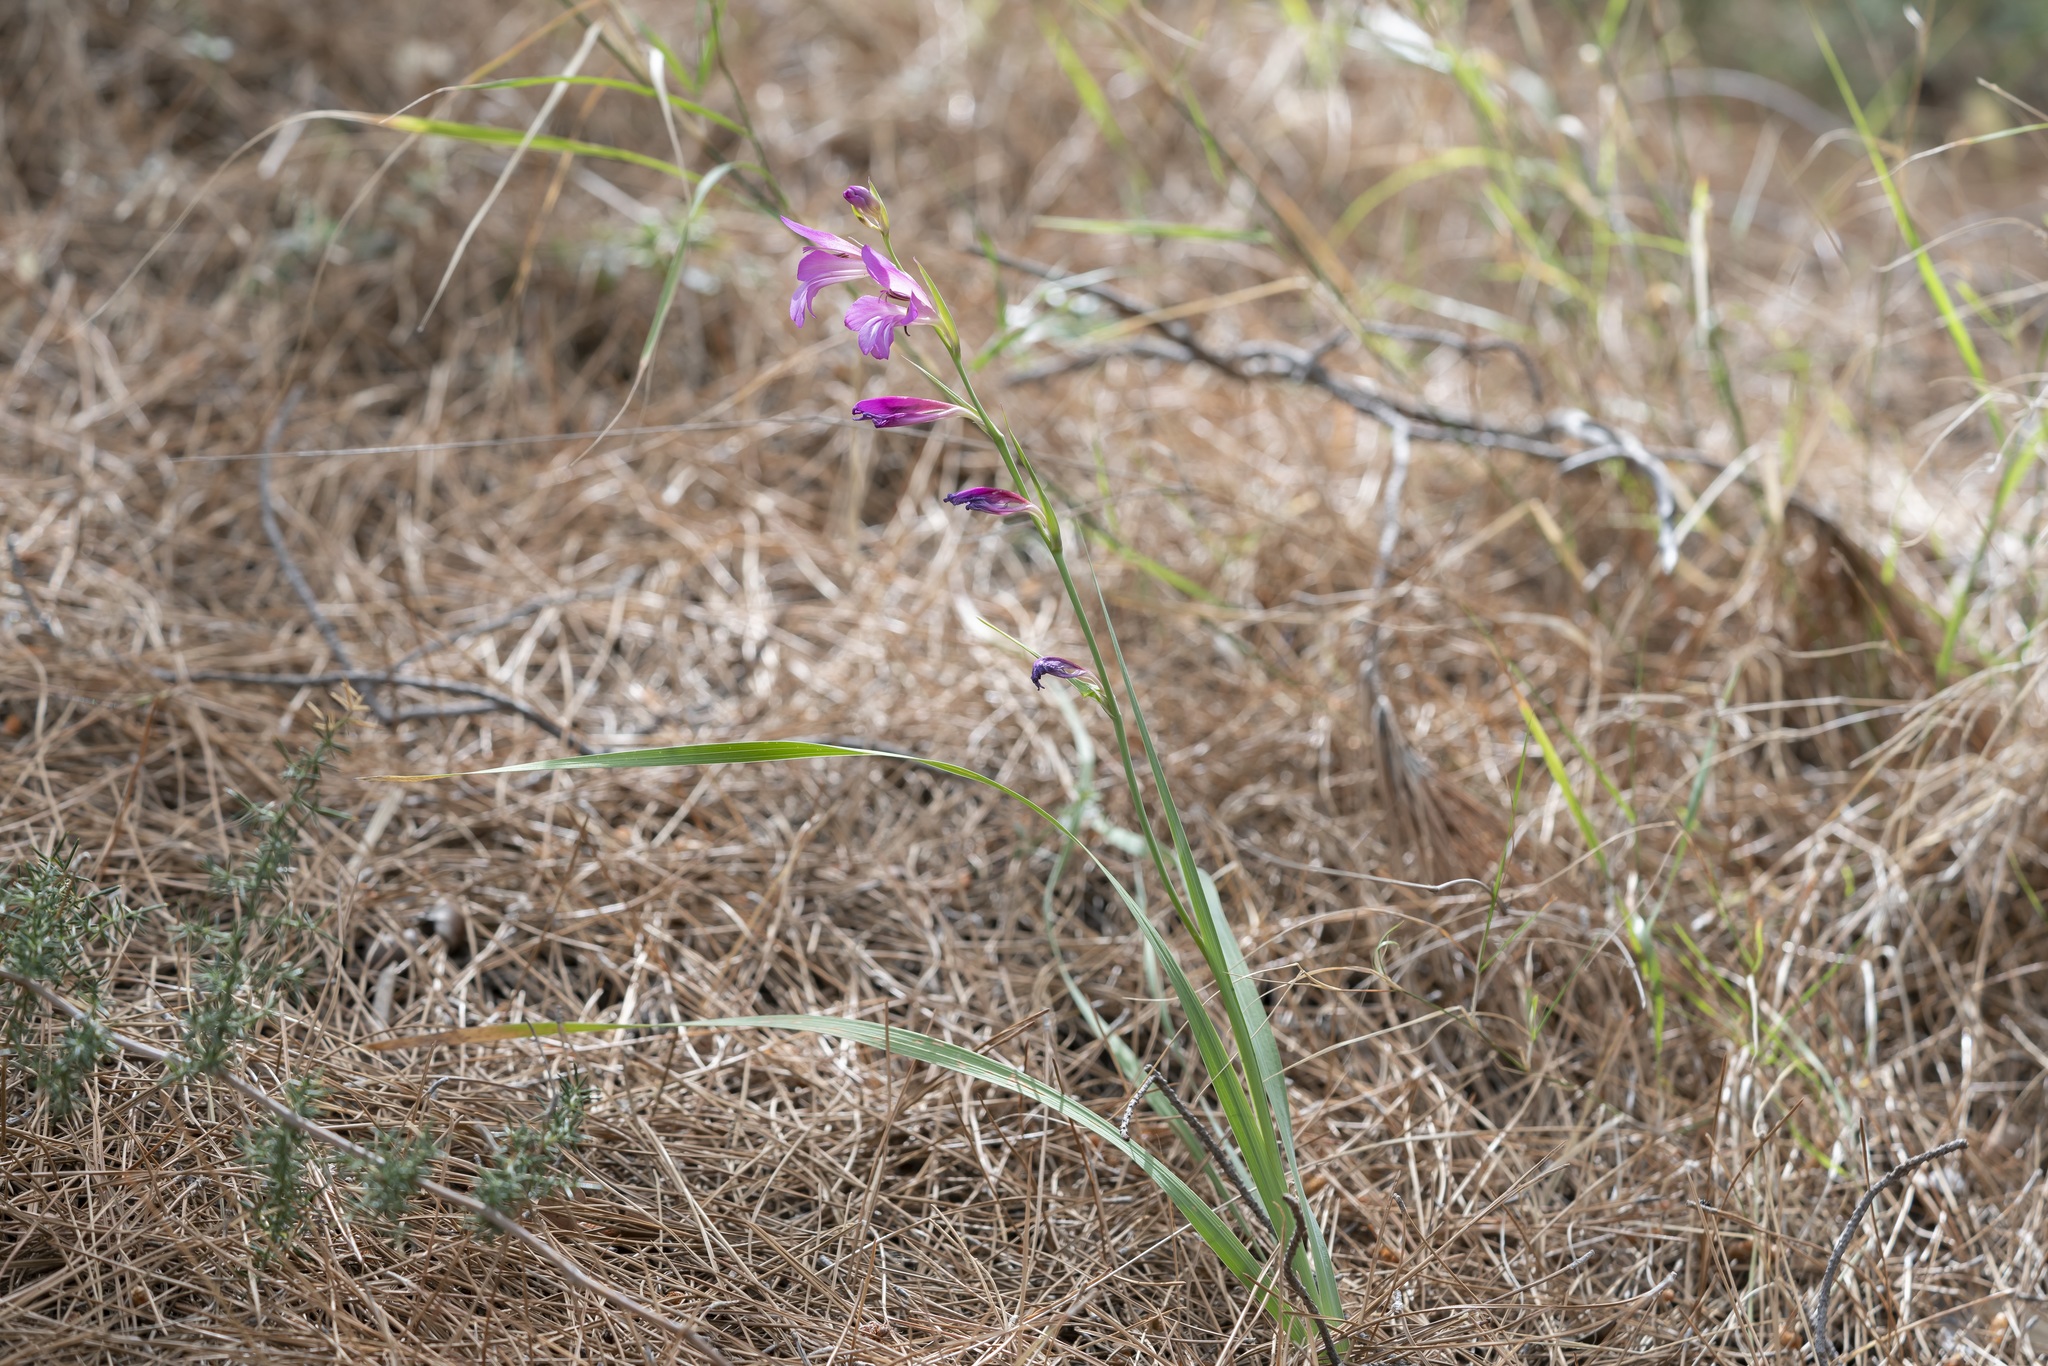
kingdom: Plantae
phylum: Tracheophyta
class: Liliopsida
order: Asparagales
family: Iridaceae
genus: Gladiolus
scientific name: Gladiolus anatolicus
